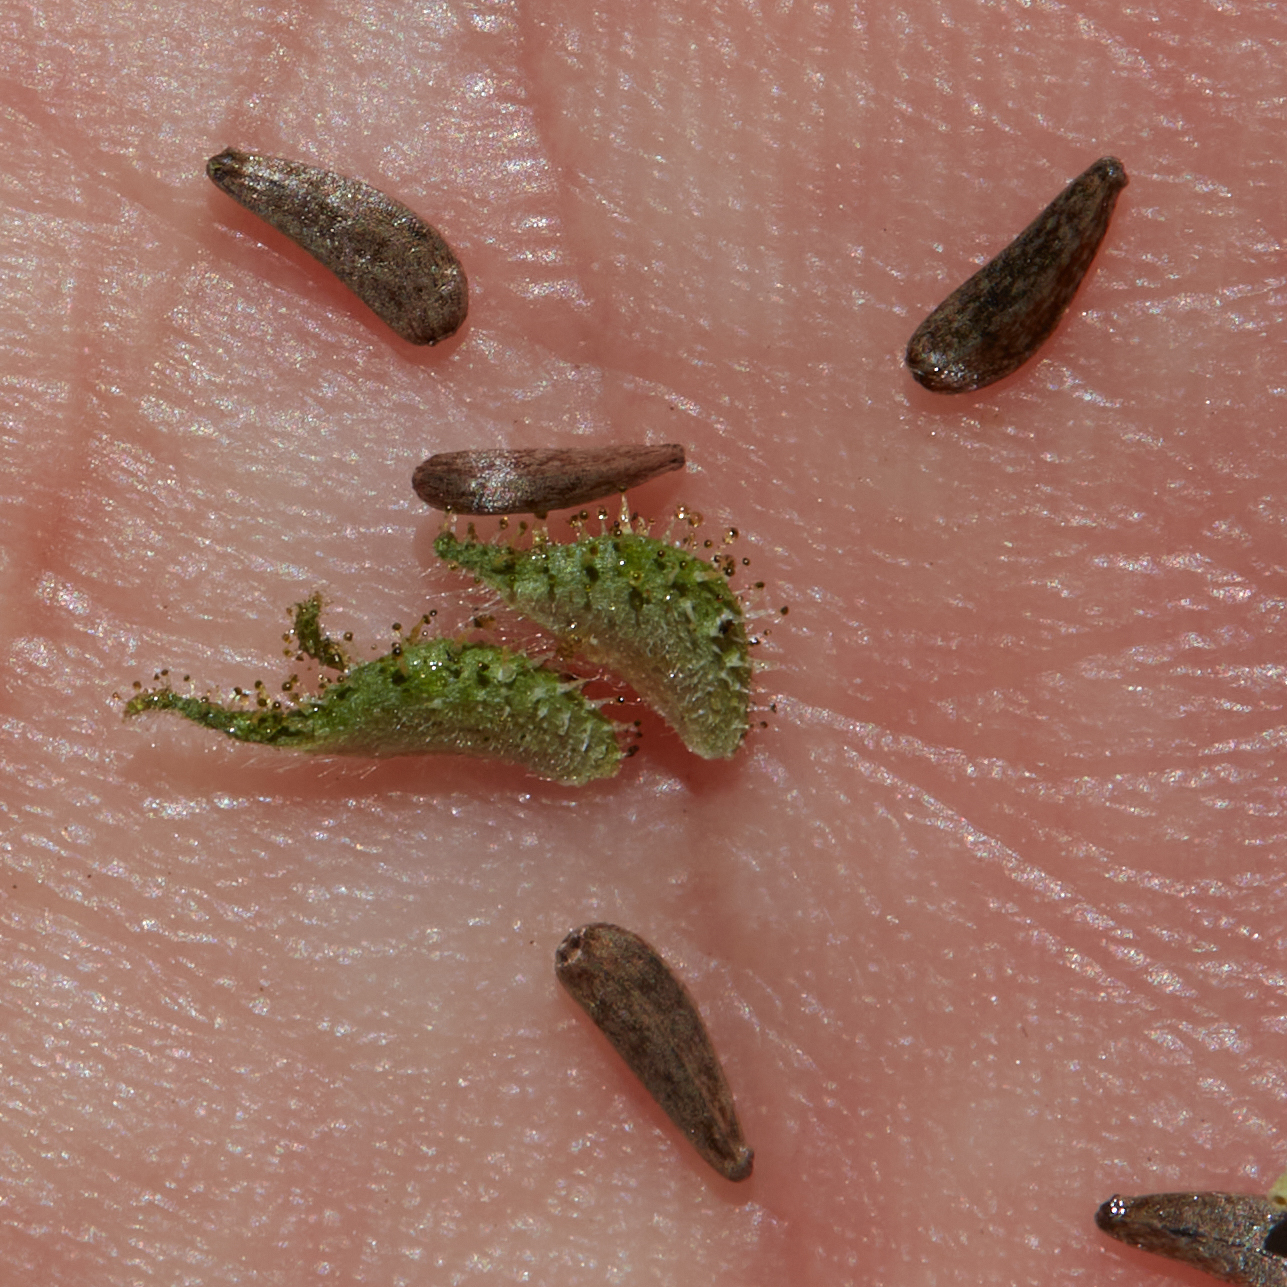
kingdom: Plantae
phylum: Tracheophyta
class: Magnoliopsida
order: Asterales
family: Asteraceae
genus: Madia
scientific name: Madia gracilis
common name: Grassy tarweed
